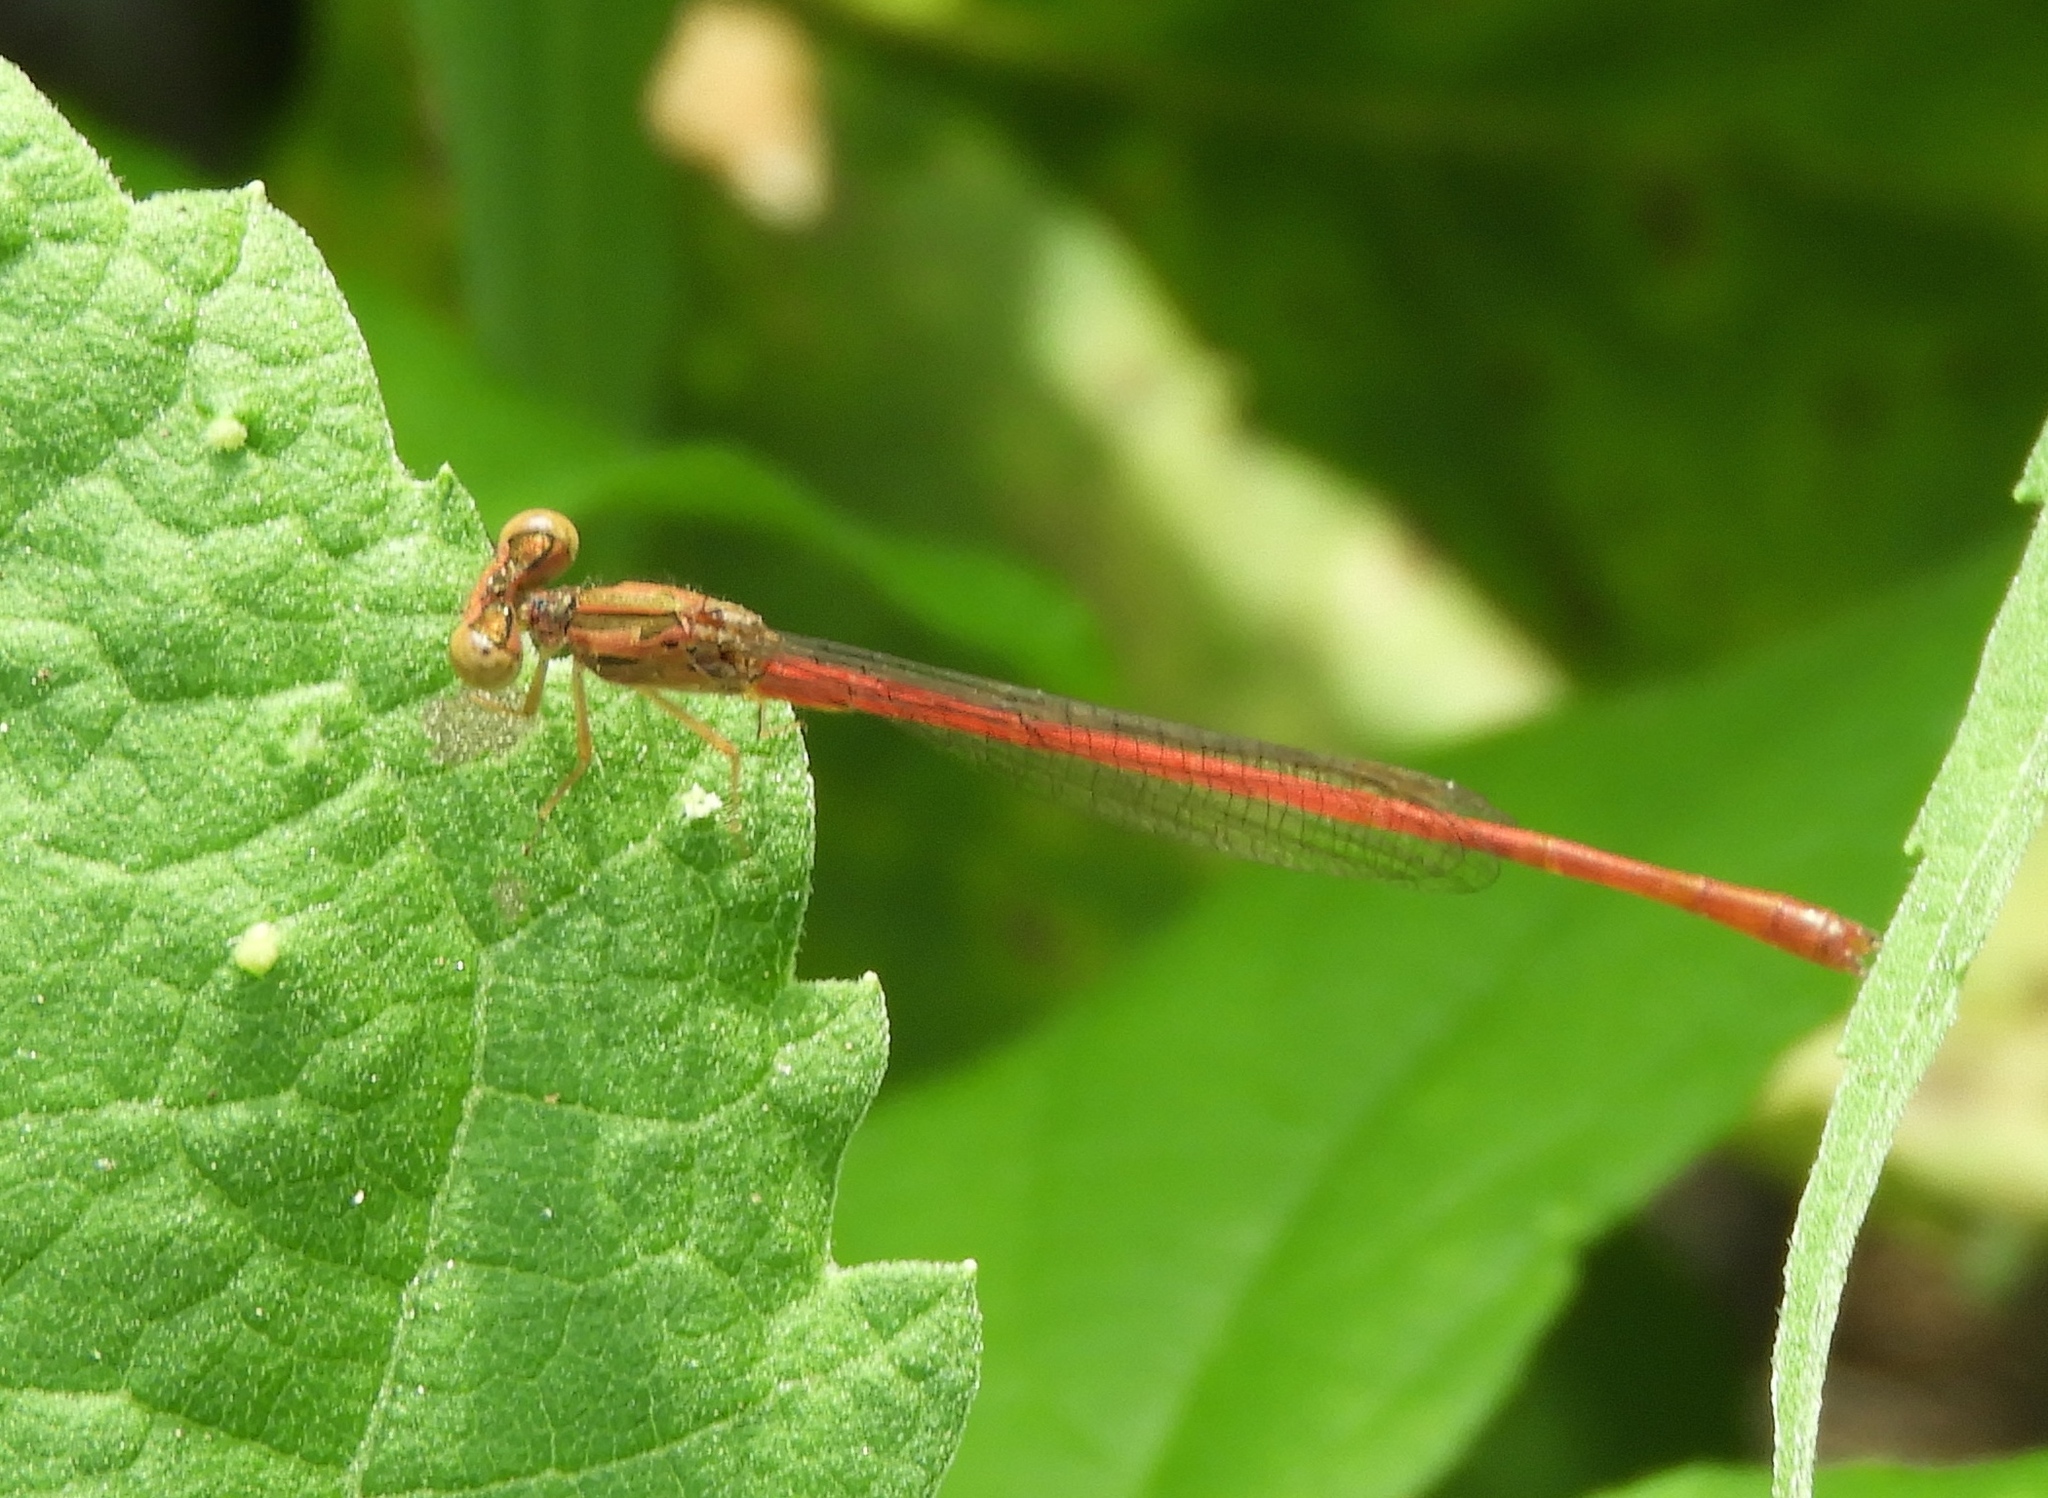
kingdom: Animalia
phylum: Arthropoda
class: Insecta
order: Odonata
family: Coenagrionidae
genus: Telebasis
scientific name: Telebasis salva
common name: Desert firetail
